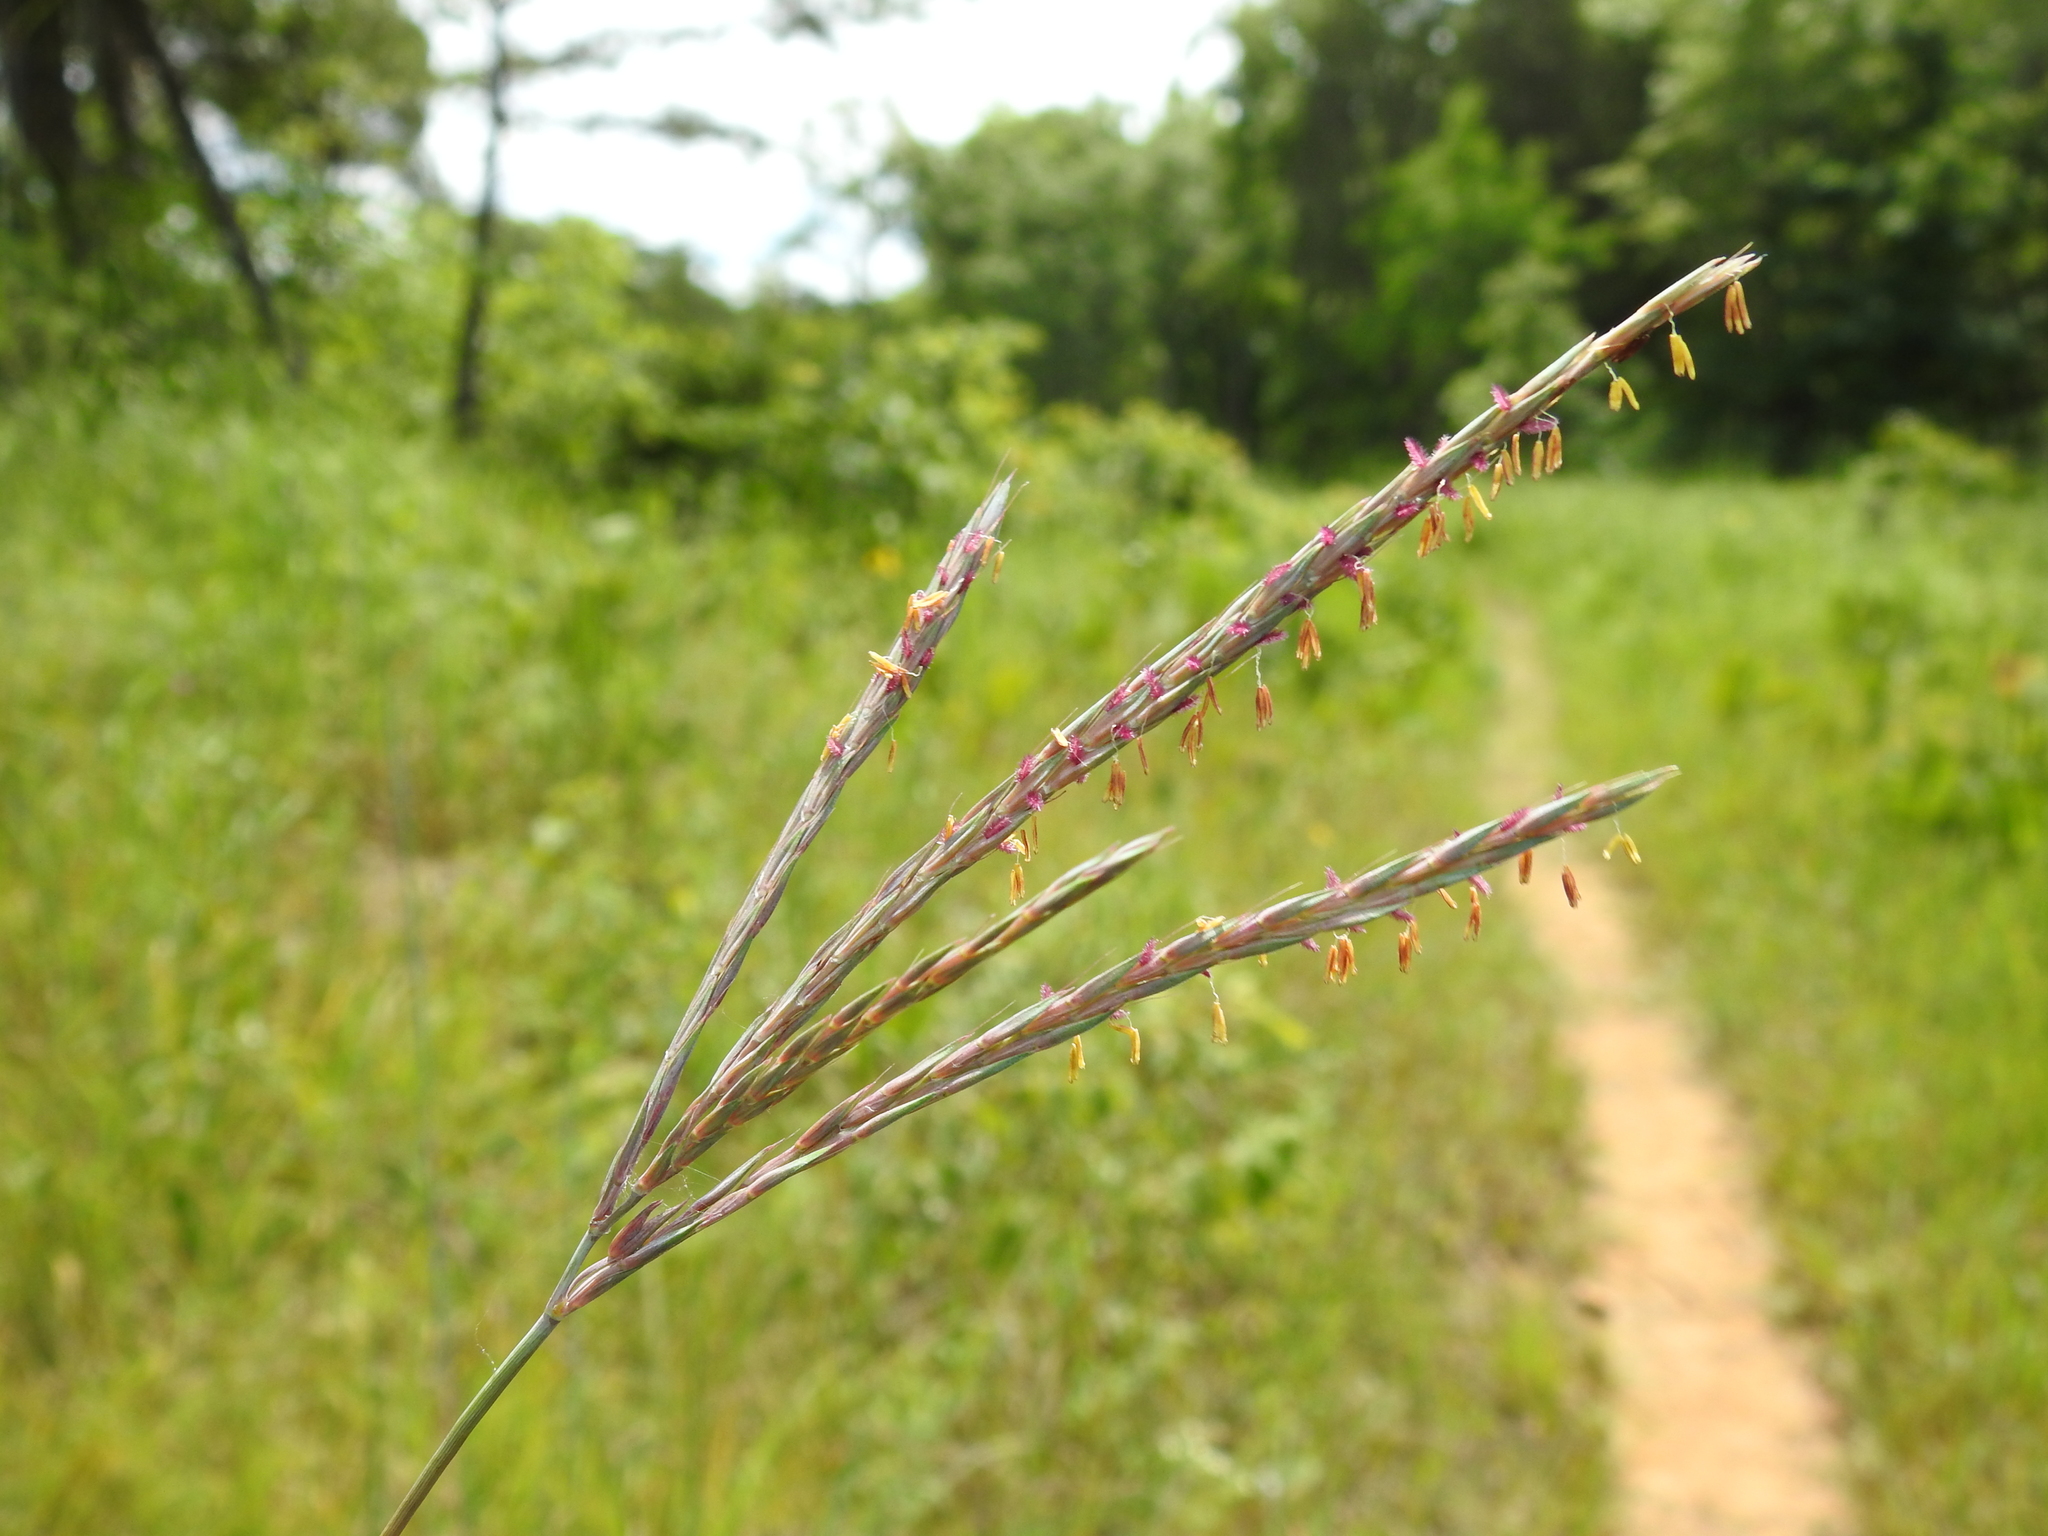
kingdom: Plantae
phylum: Tracheophyta
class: Liliopsida
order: Poales
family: Poaceae
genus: Andropogon
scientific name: Andropogon gerardi
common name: Big bluestem
